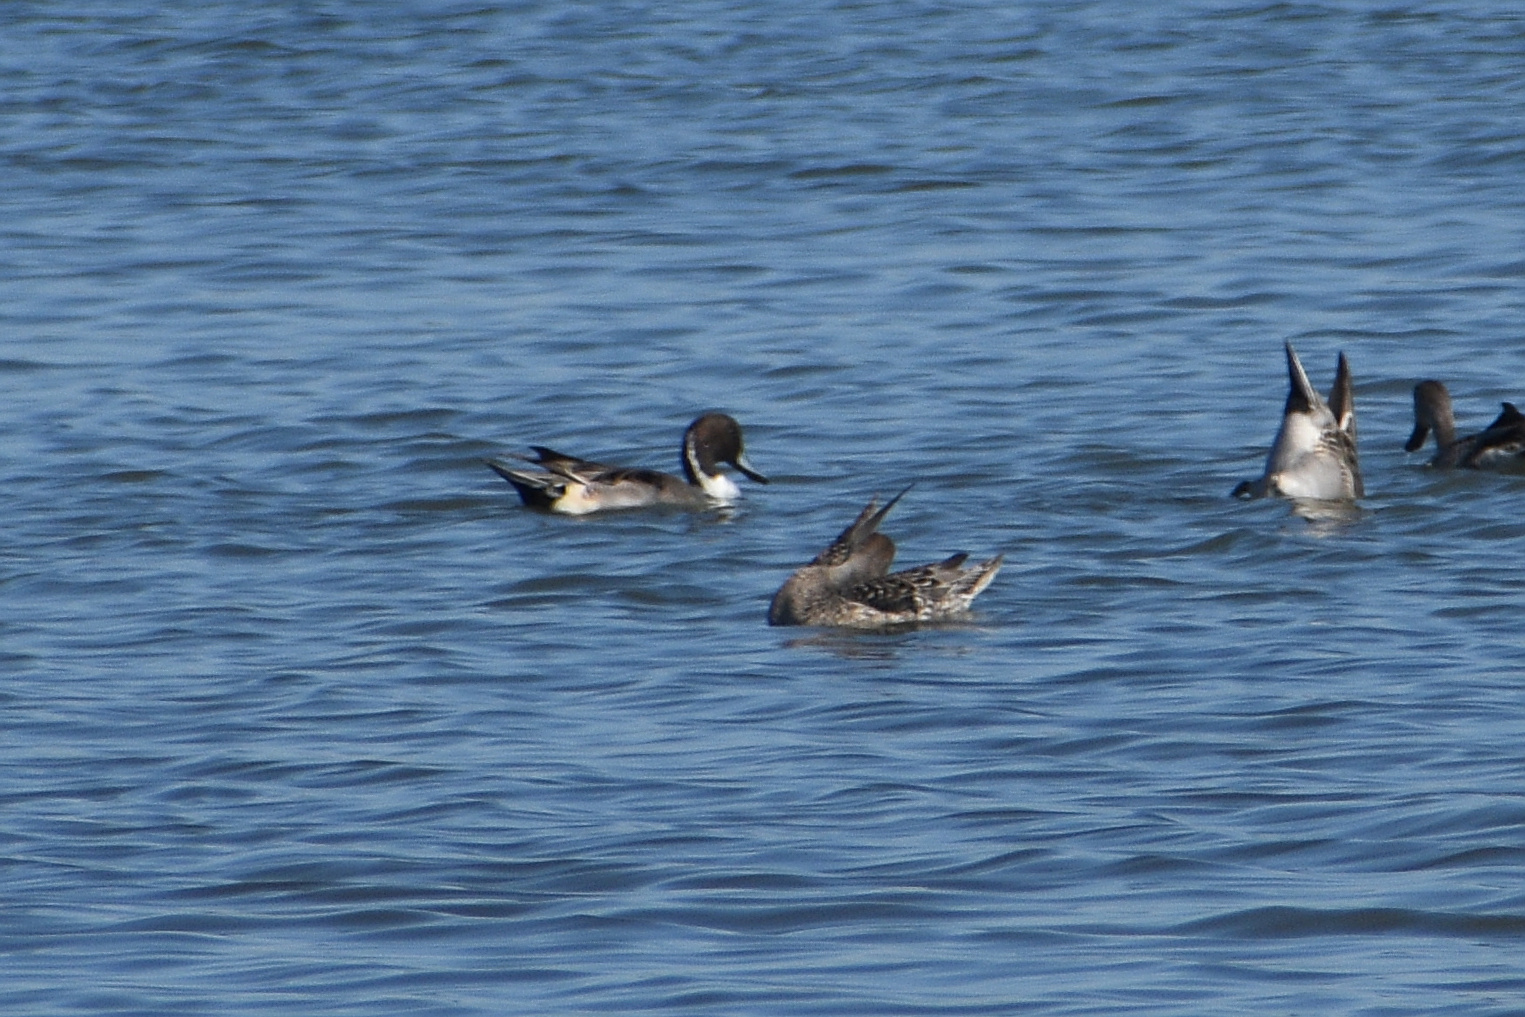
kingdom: Animalia
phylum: Chordata
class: Aves
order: Anseriformes
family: Anatidae
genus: Anas
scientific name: Anas acuta
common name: Northern pintail
